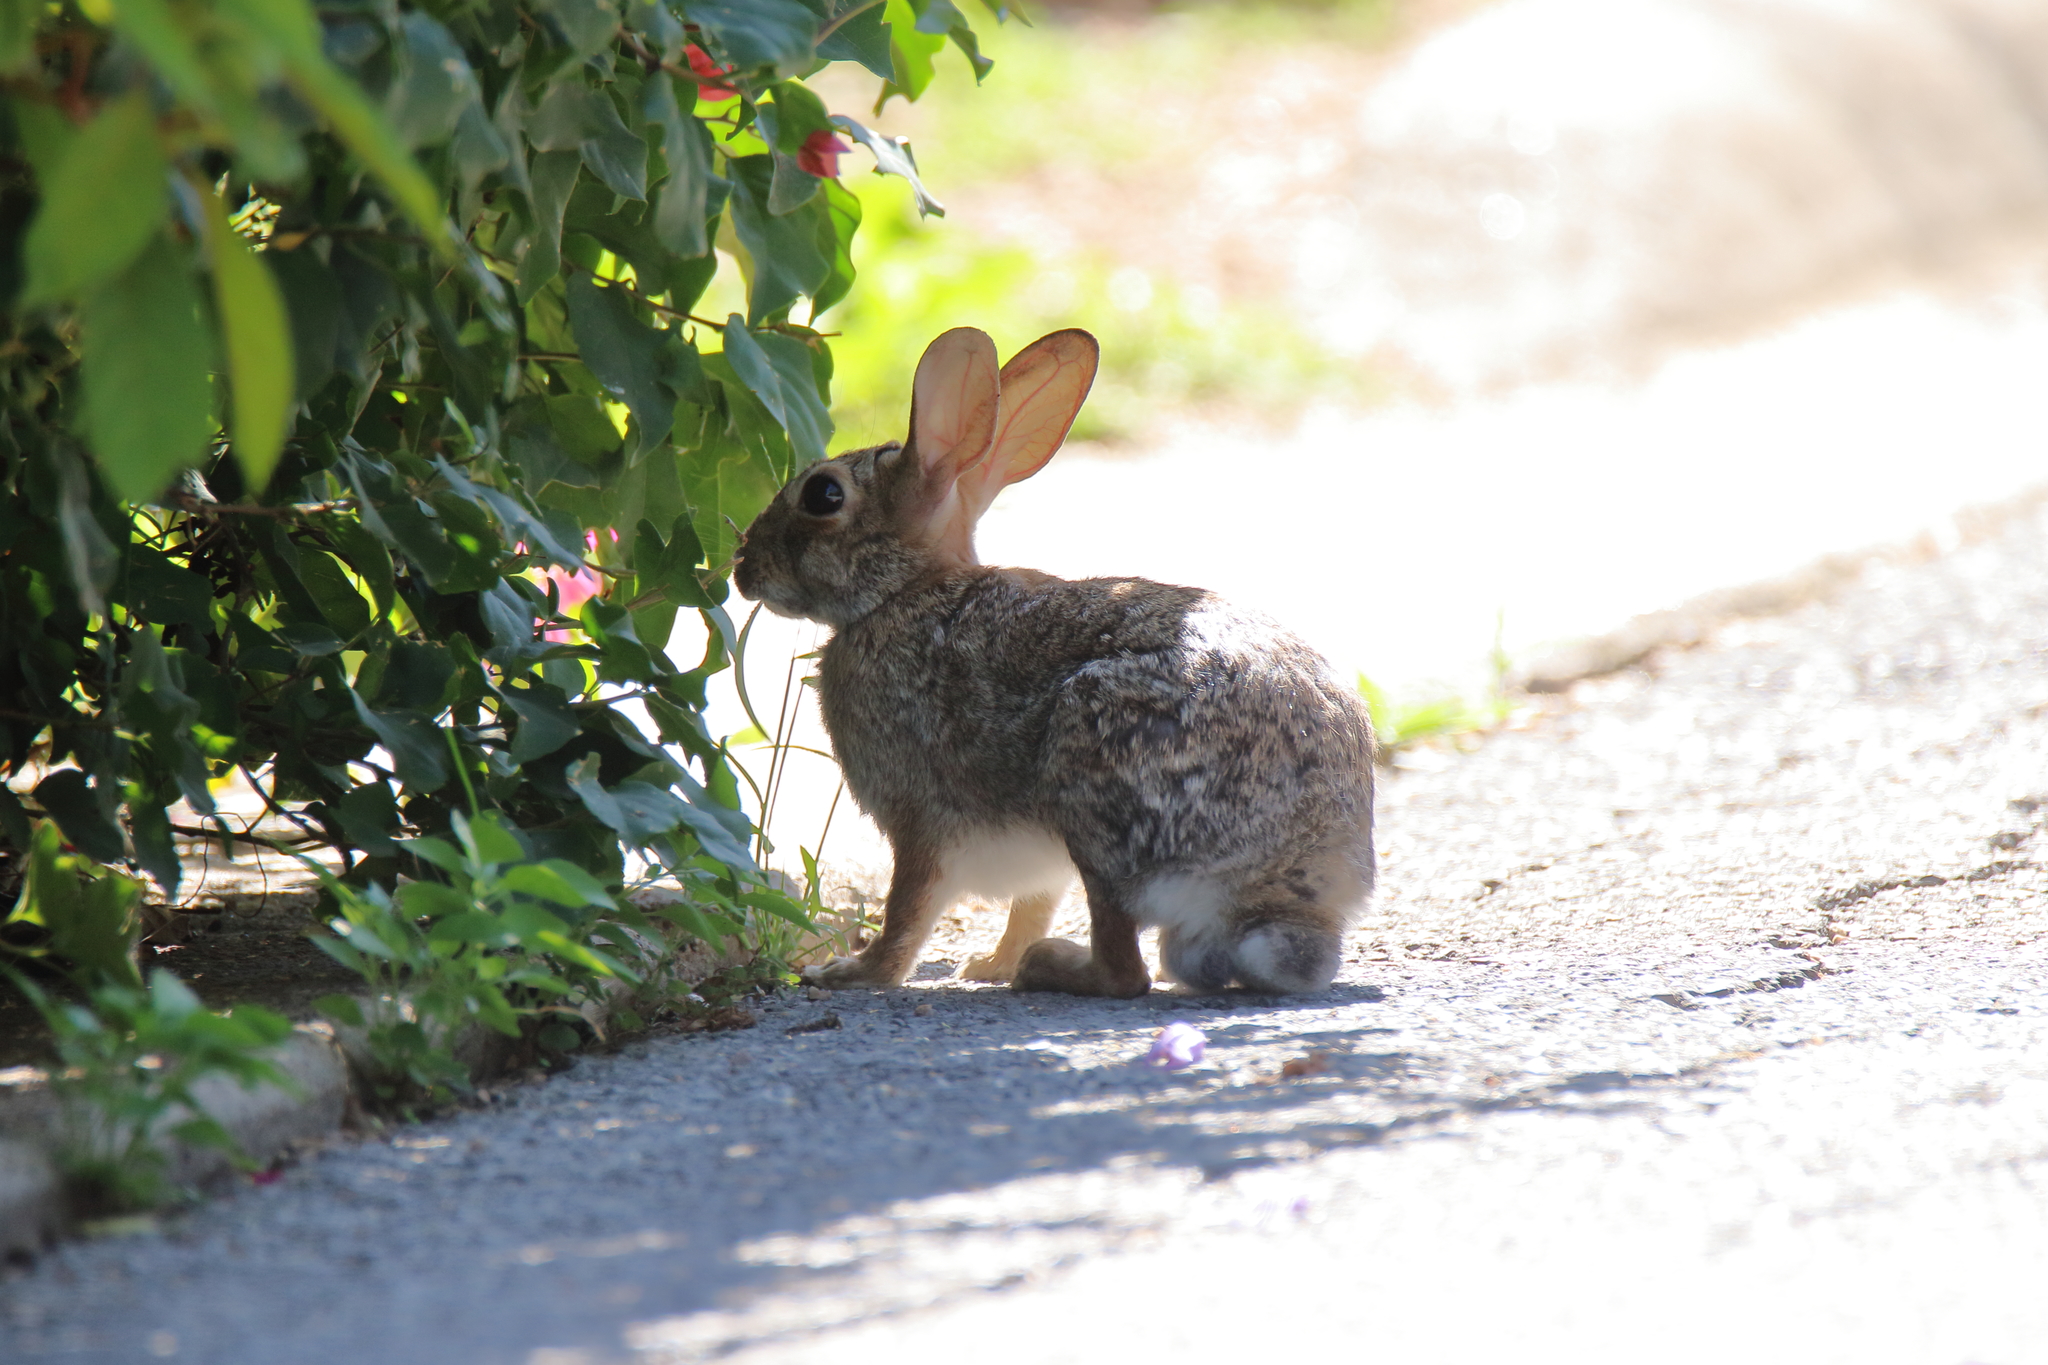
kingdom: Animalia
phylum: Chordata
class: Mammalia
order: Lagomorpha
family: Leporidae
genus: Sylvilagus
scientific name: Sylvilagus floridanus
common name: Eastern cottontail
